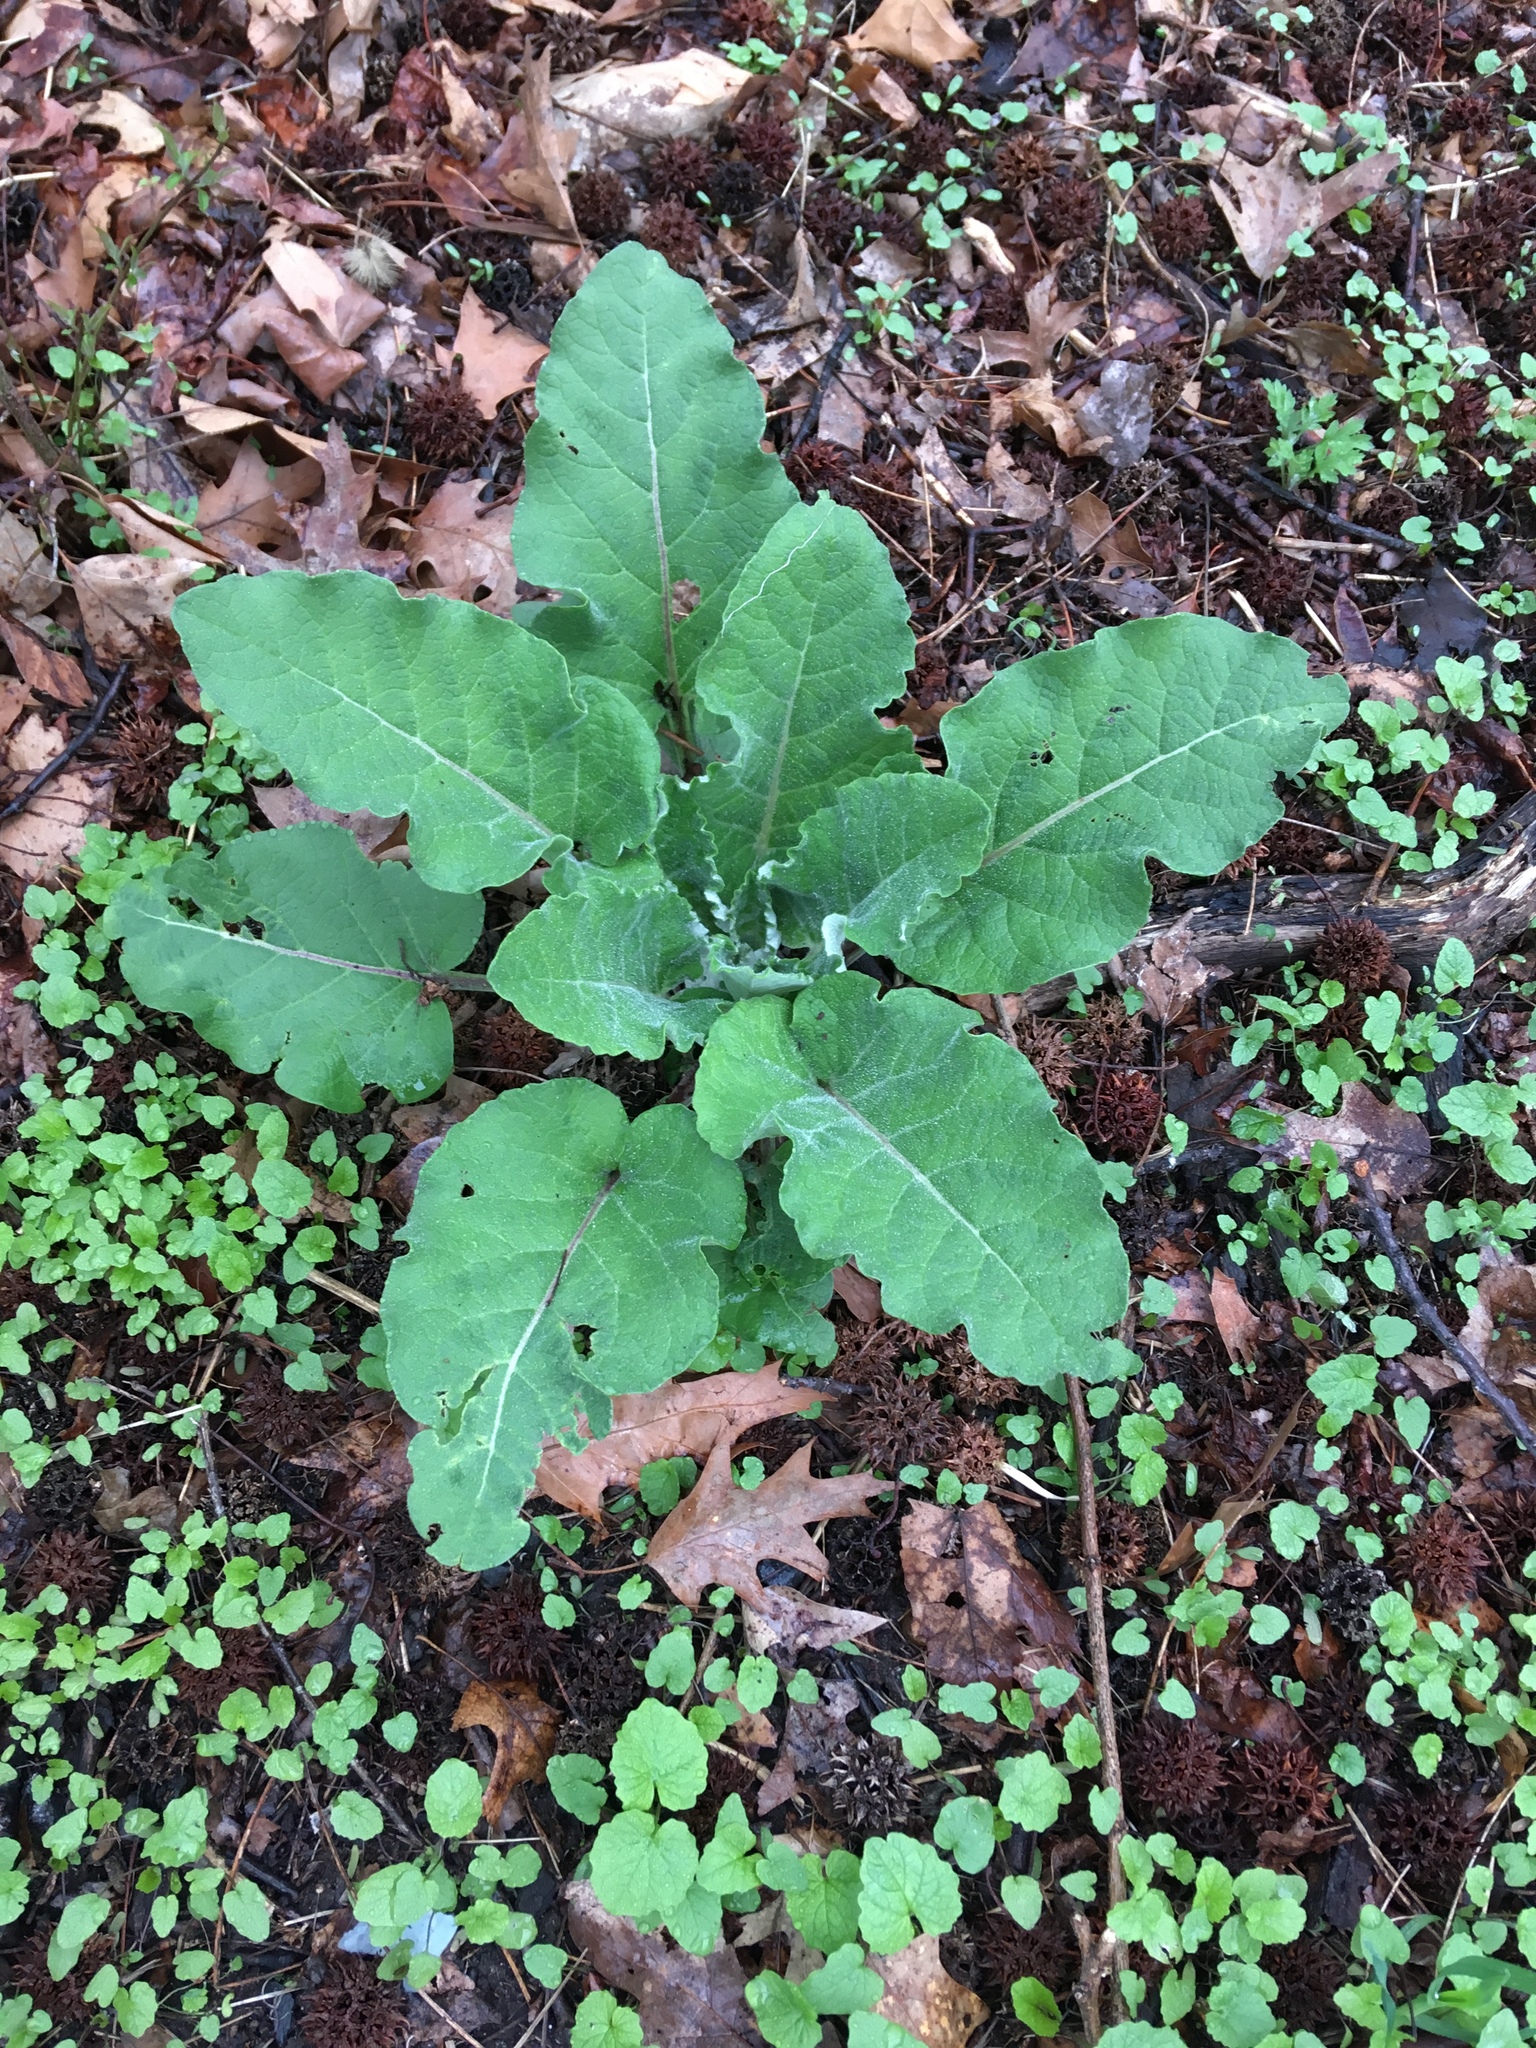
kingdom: Plantae
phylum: Tracheophyta
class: Magnoliopsida
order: Asterales
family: Asteraceae
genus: Arctium
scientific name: Arctium
